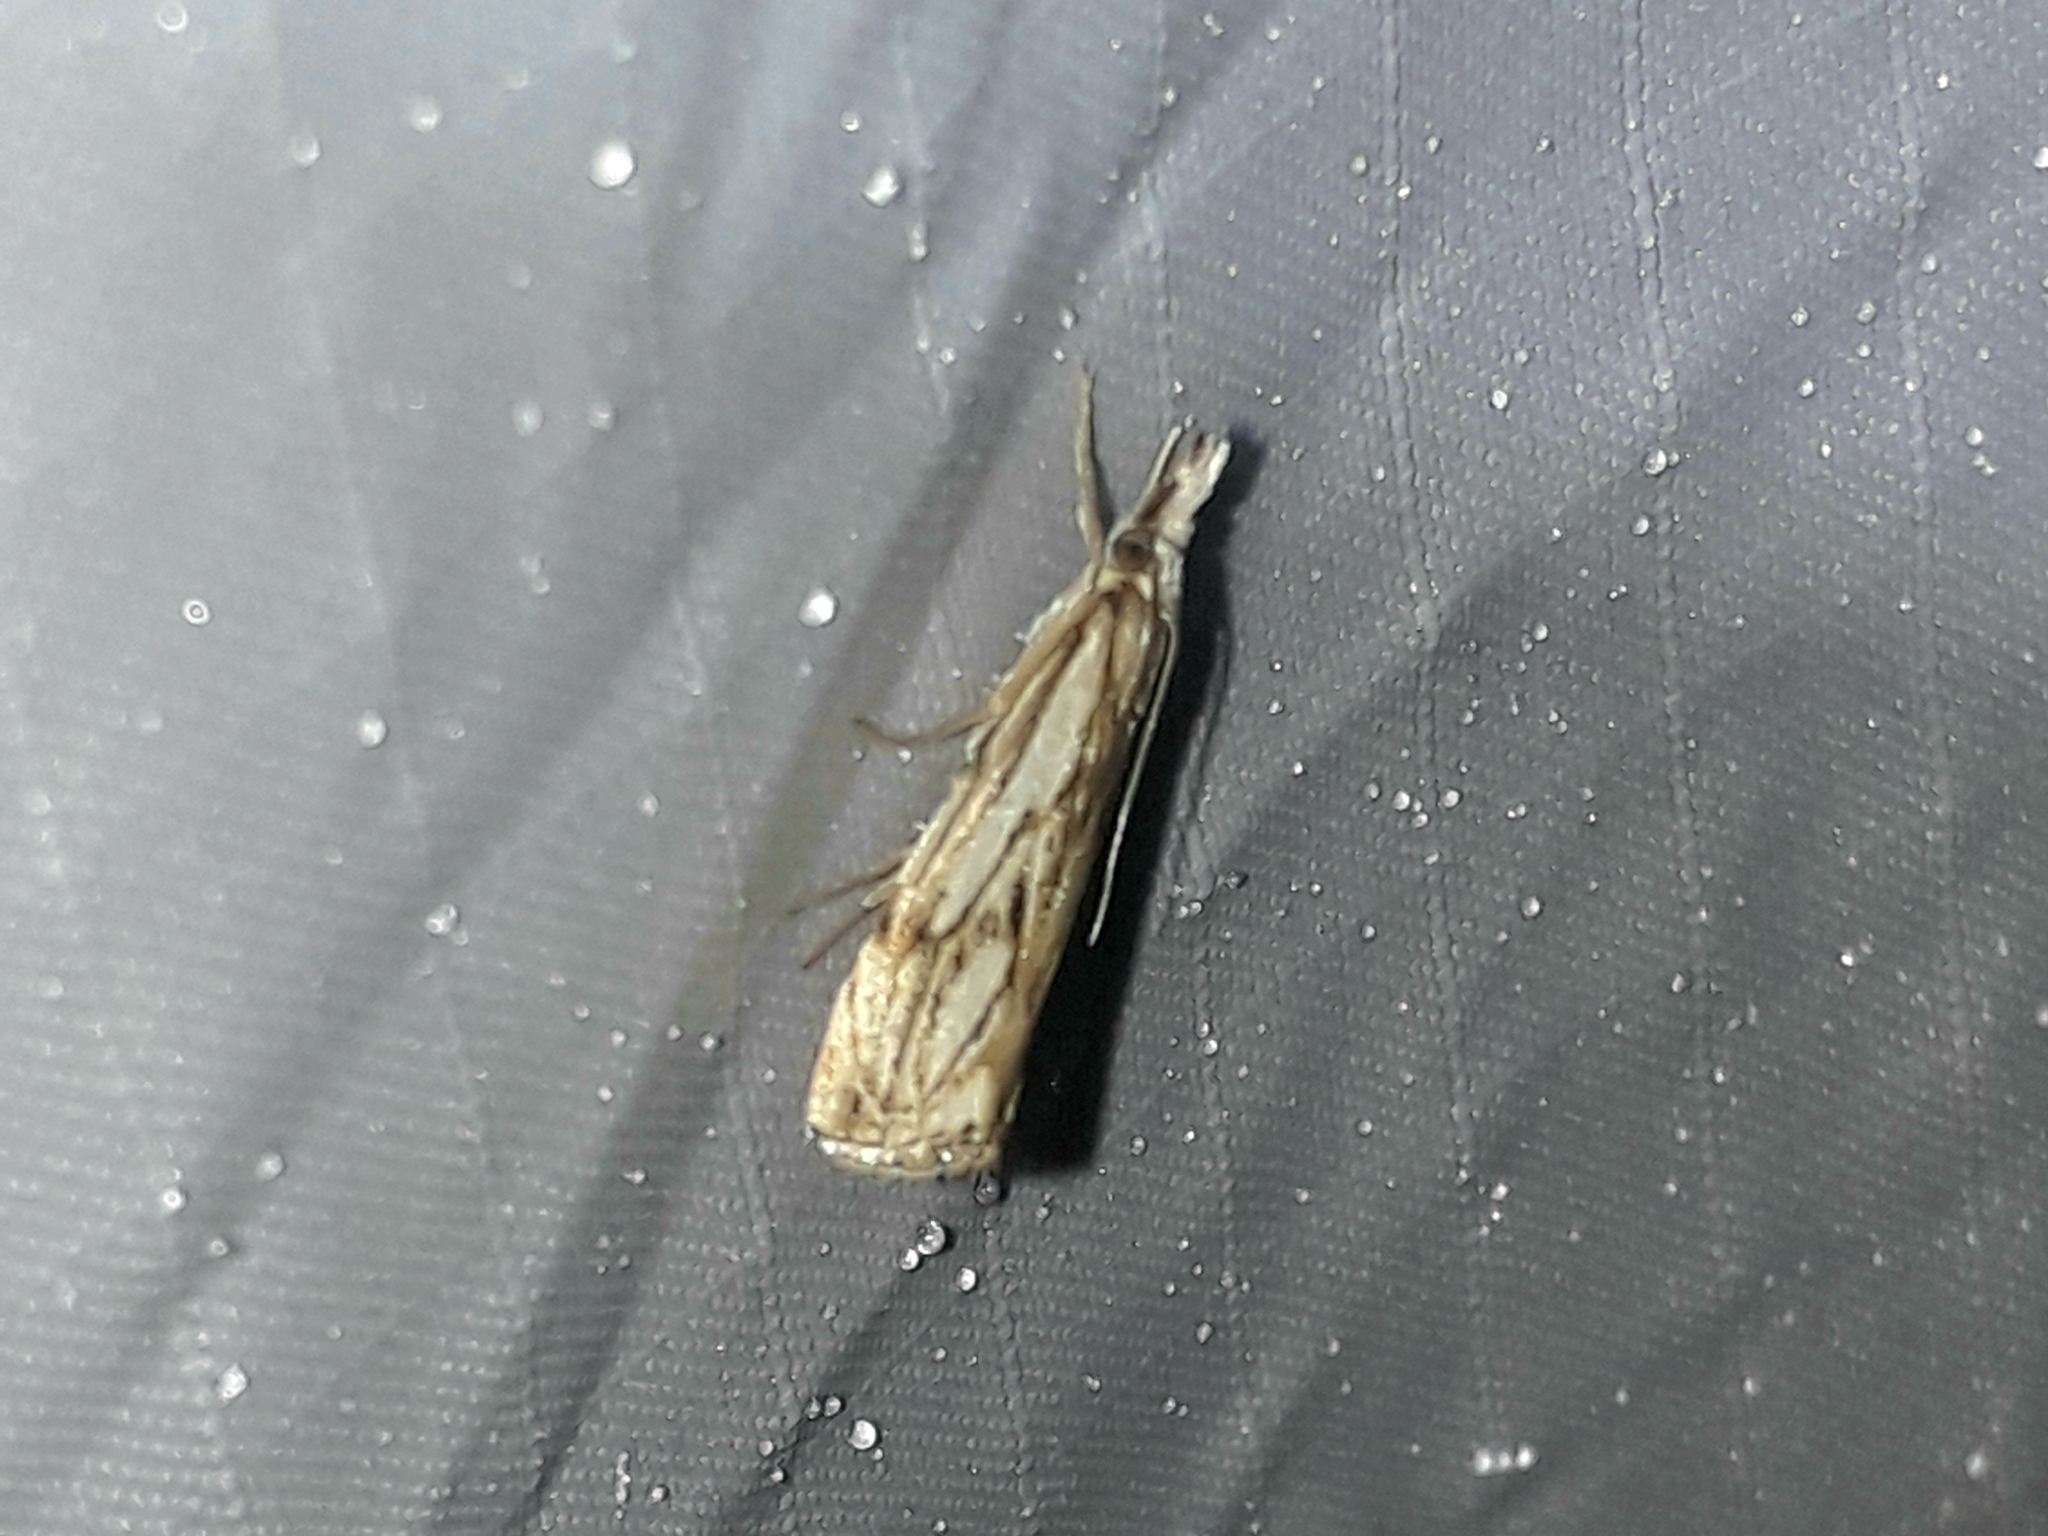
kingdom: Animalia
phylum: Arthropoda
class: Insecta
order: Lepidoptera
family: Crambidae
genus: Catoptria
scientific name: Catoptria falsella
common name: Chequered grass-veneer
